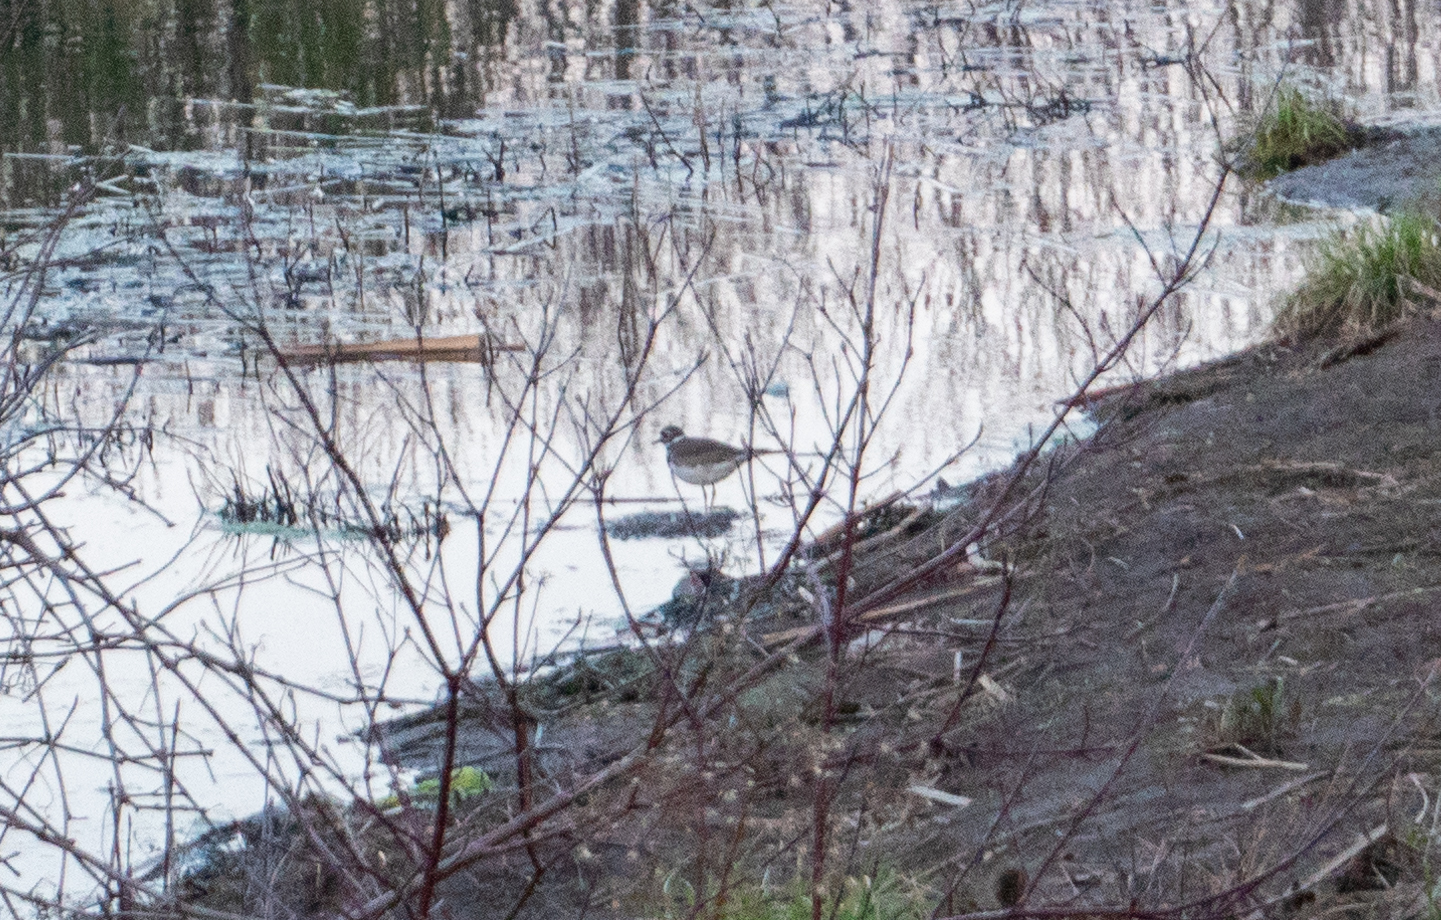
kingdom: Animalia
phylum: Chordata
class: Aves
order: Charadriiformes
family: Charadriidae
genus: Charadrius
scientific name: Charadrius vociferus
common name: Killdeer
